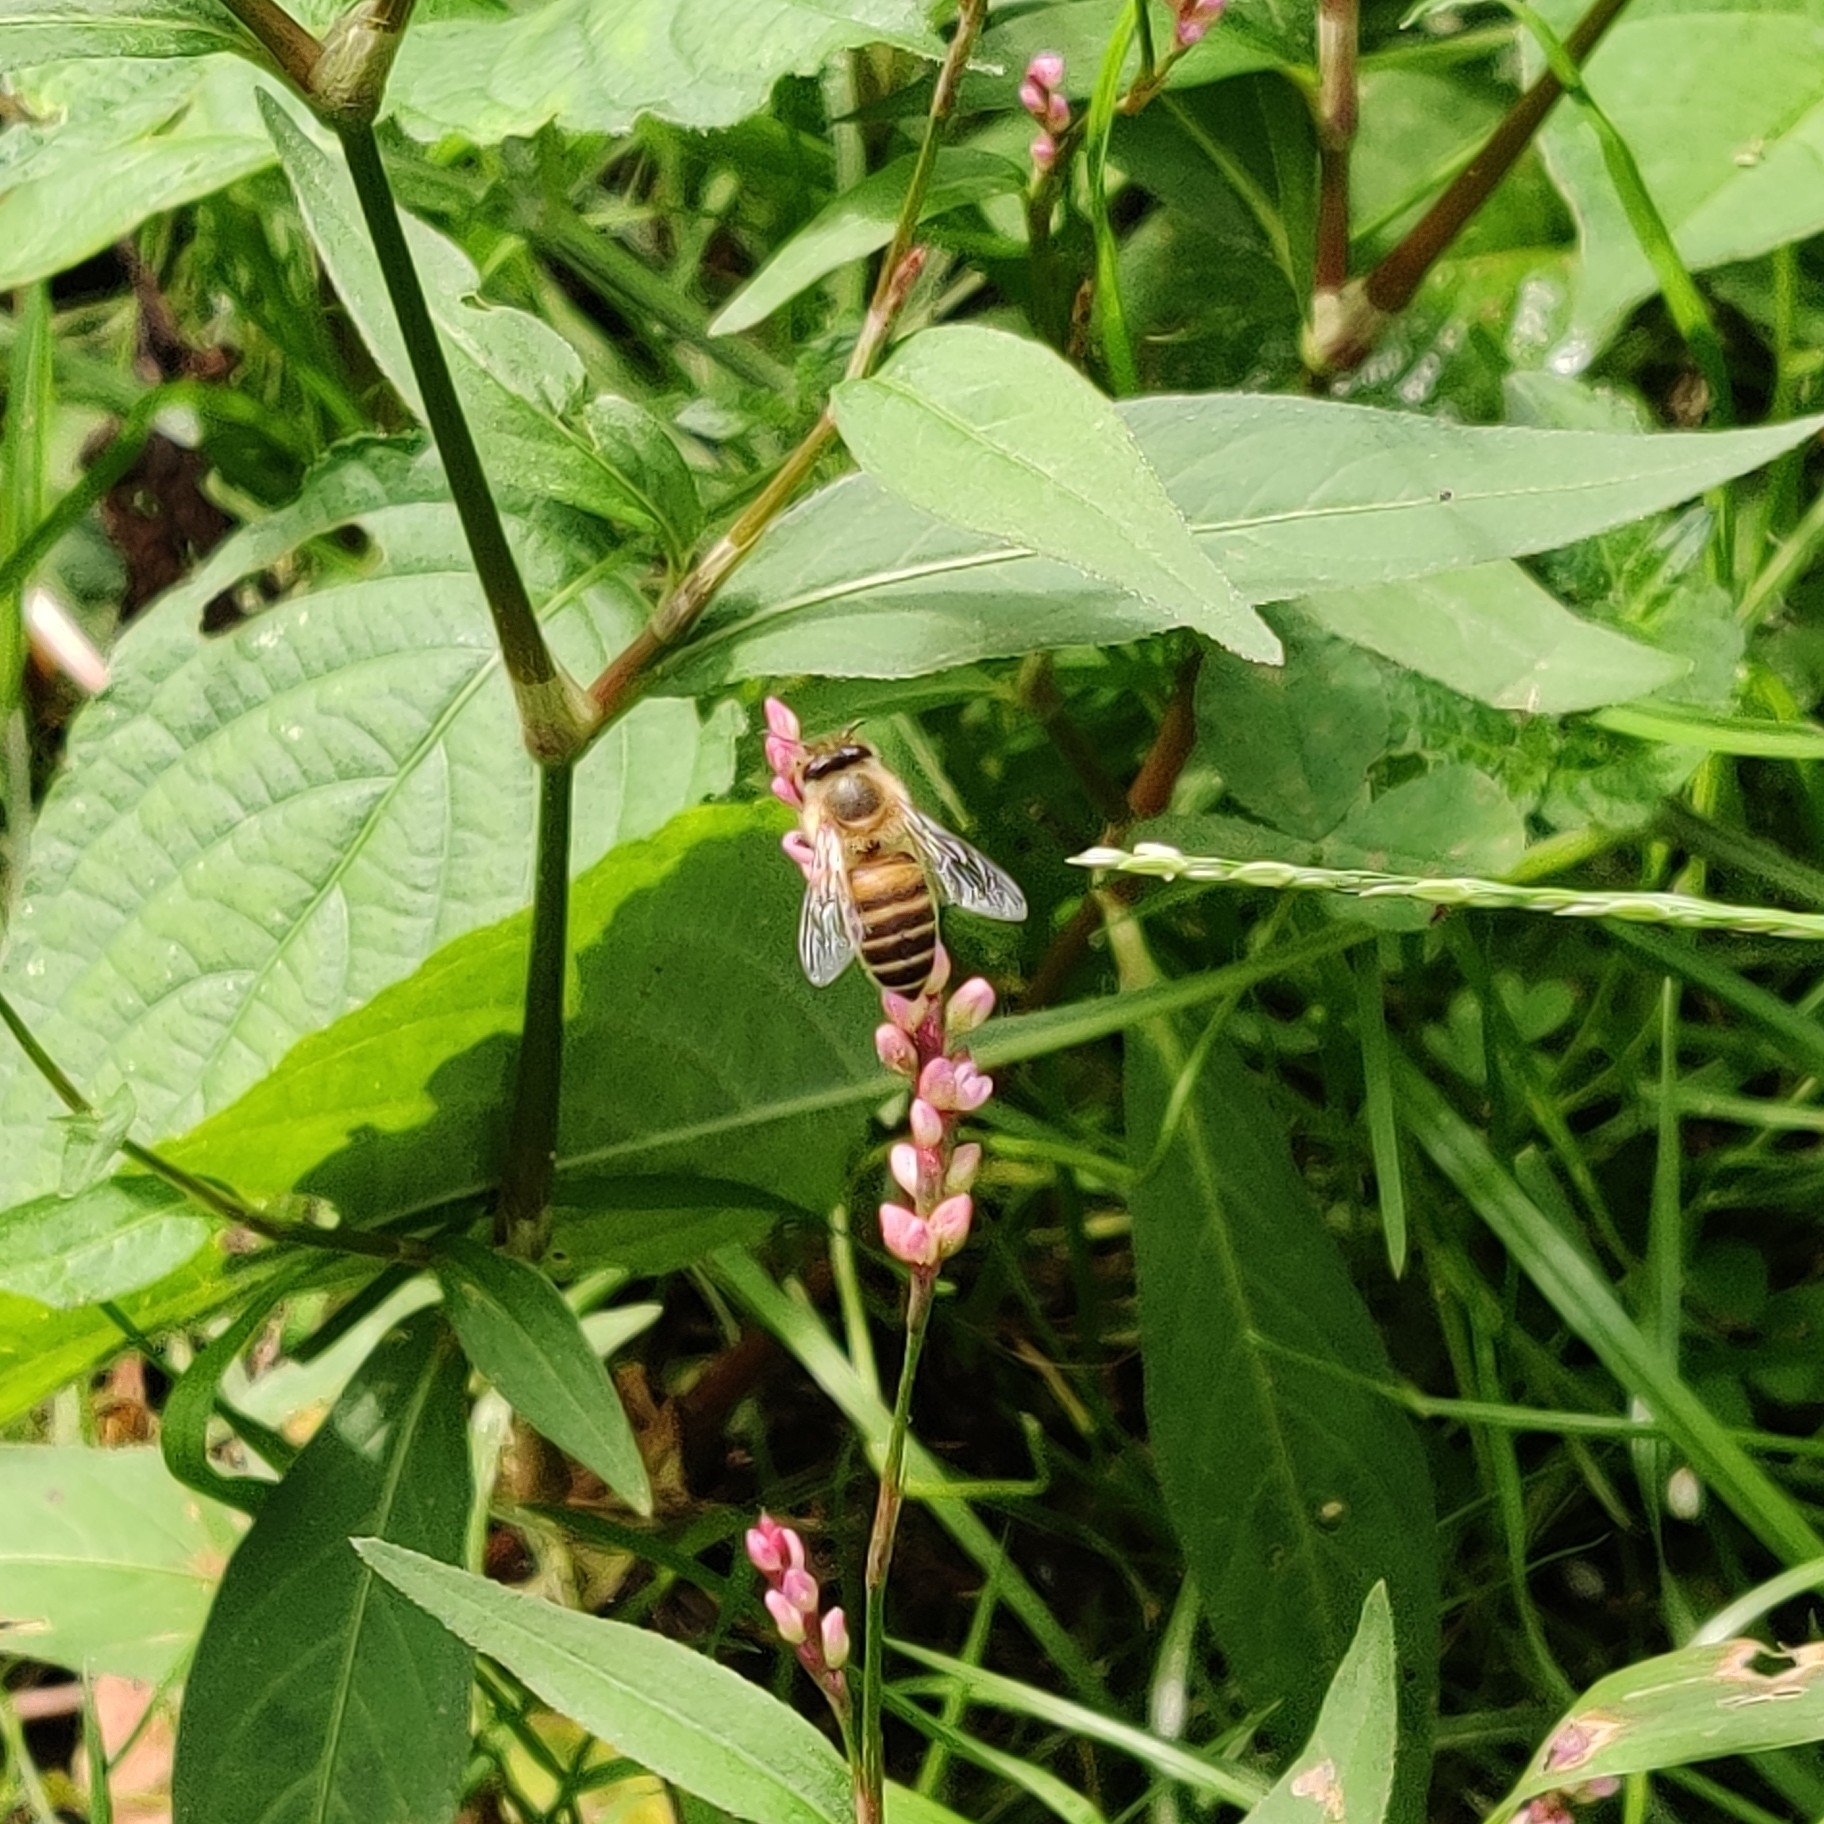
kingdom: Animalia
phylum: Arthropoda
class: Insecta
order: Hymenoptera
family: Apidae
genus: Apis
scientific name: Apis cerana
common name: Honey bee
